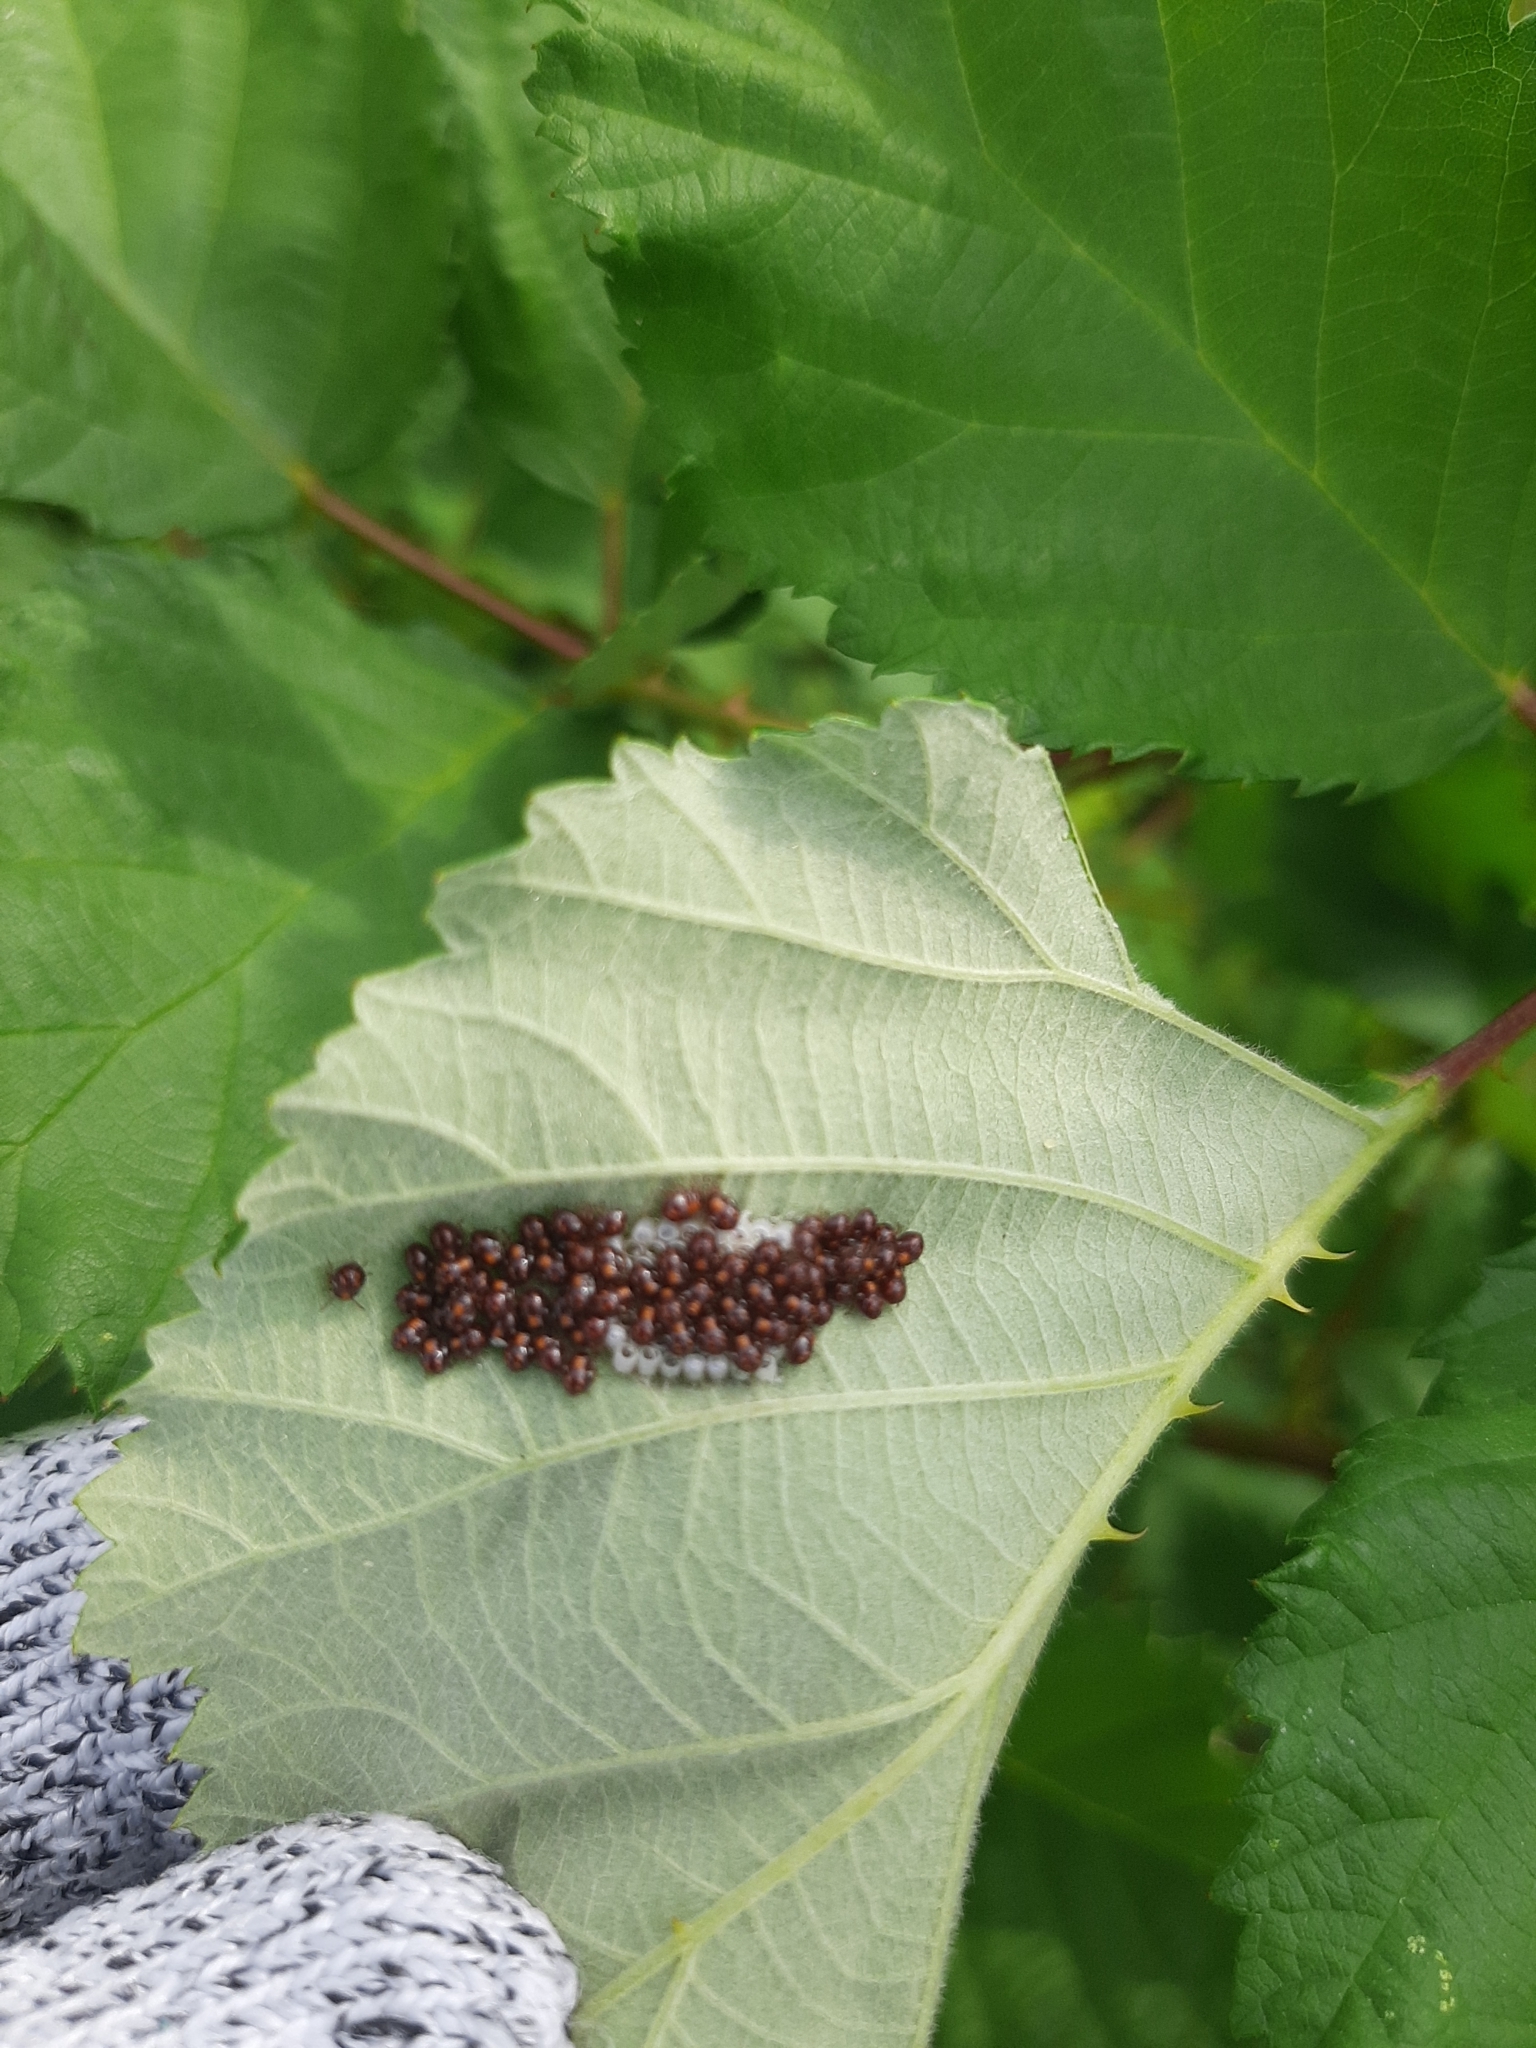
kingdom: Animalia
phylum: Arthropoda
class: Insecta
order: Hemiptera
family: Pentatomidae
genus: Nezara
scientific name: Nezara viridula
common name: Southern green stink bug
